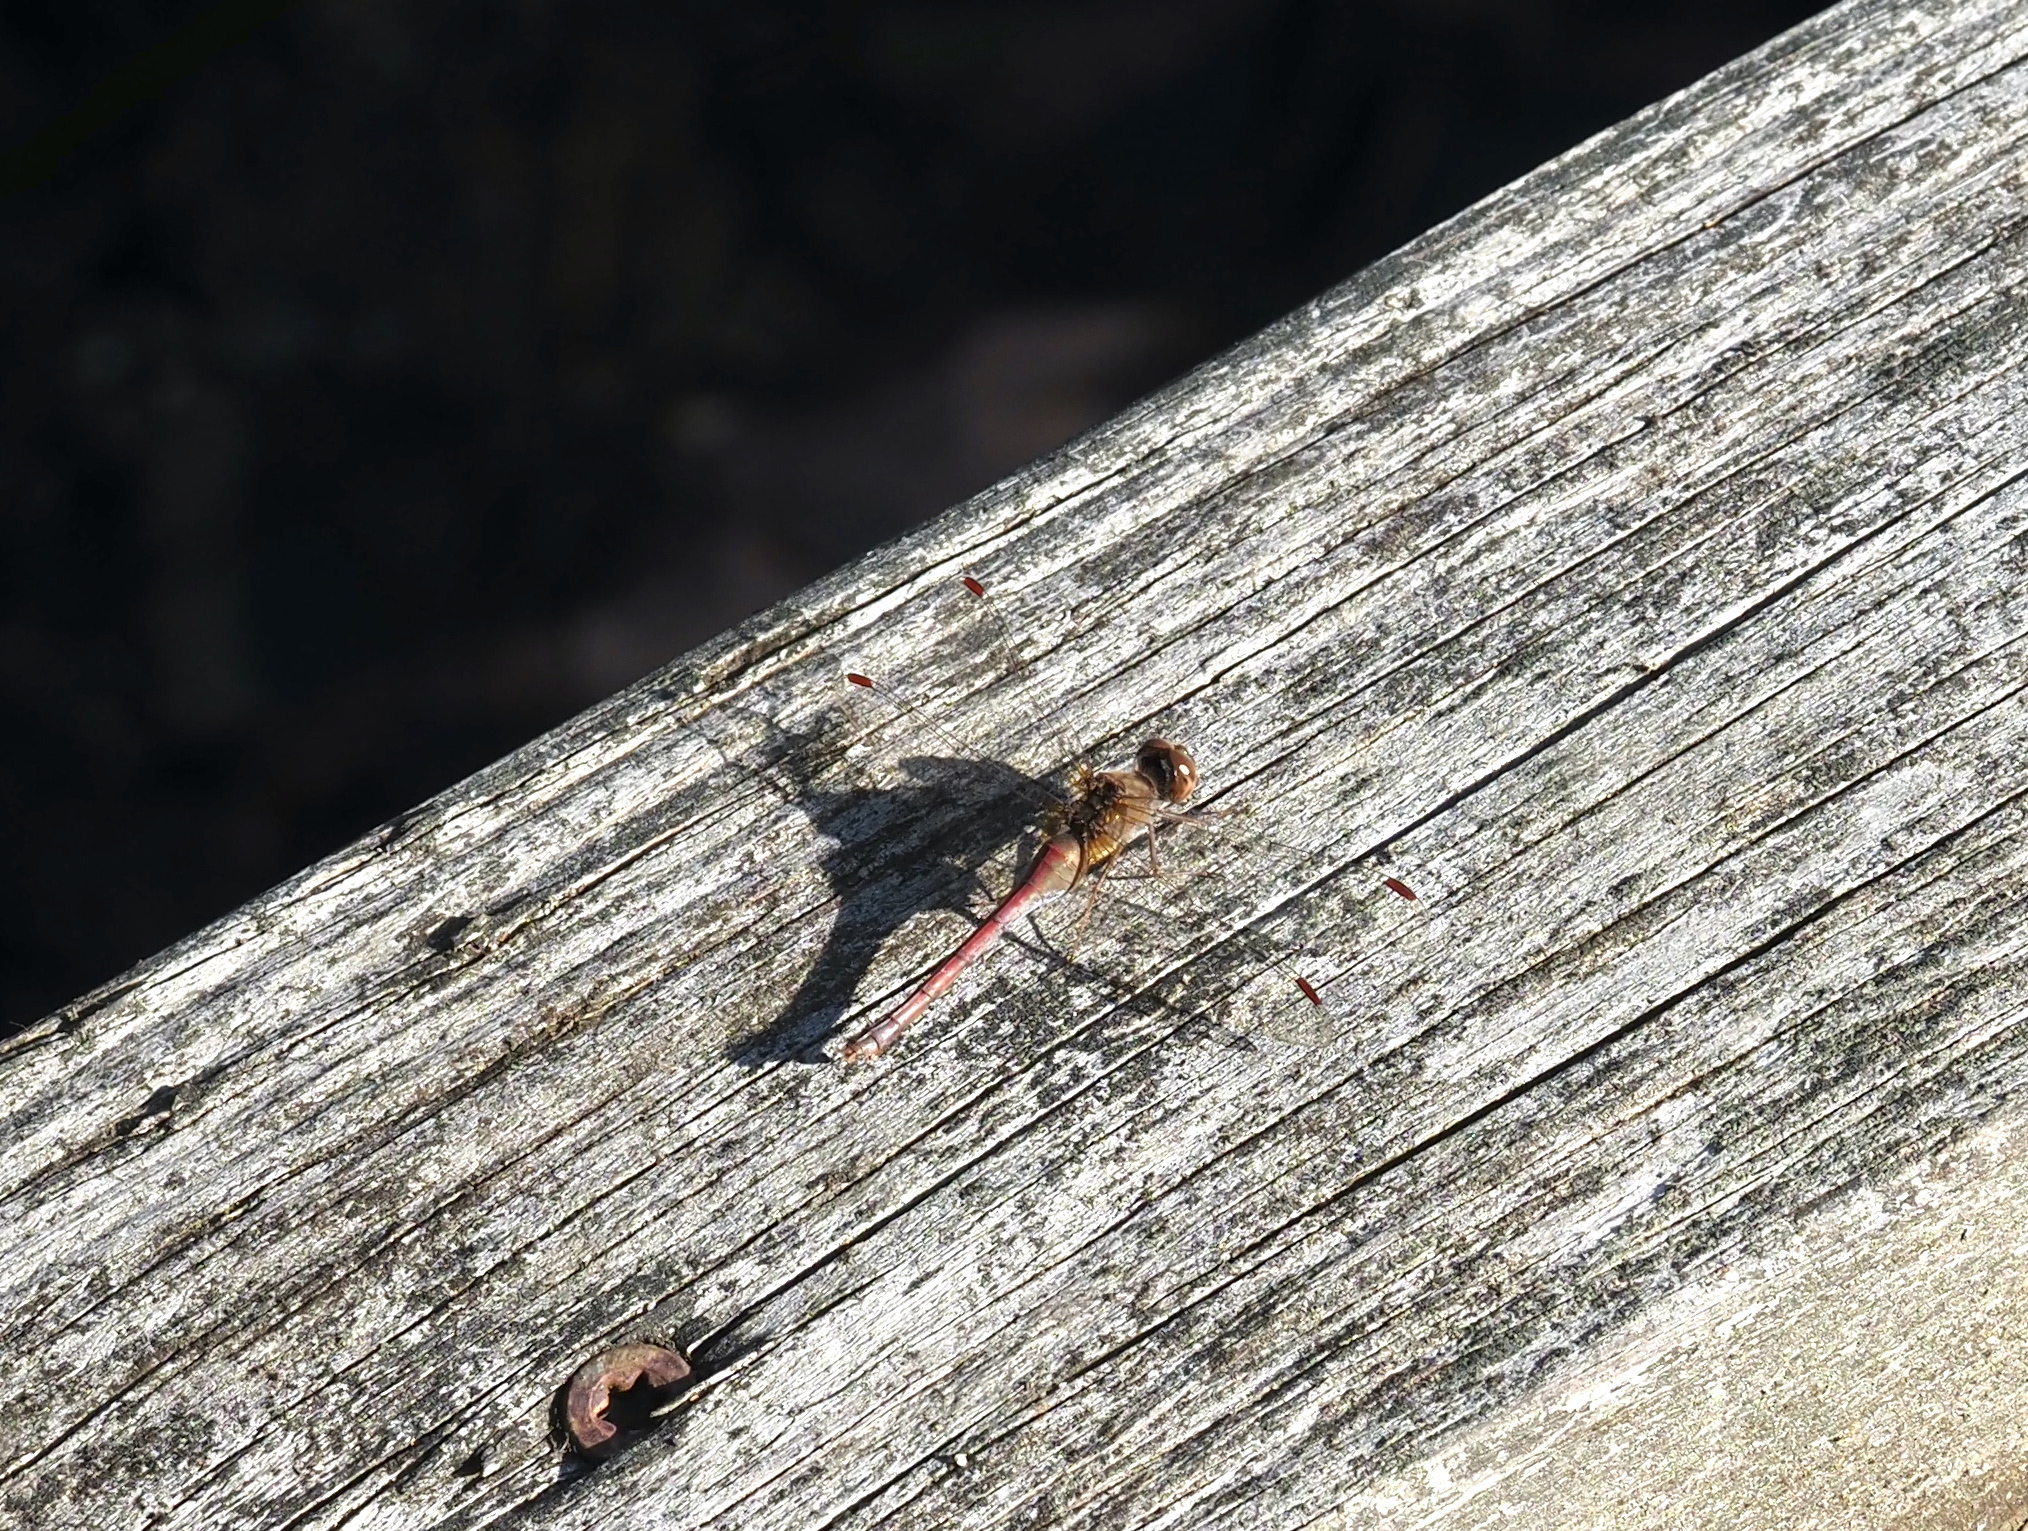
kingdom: Animalia
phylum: Arthropoda
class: Insecta
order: Odonata
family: Libellulidae
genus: Sympetrum
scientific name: Sympetrum vicinum
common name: Autumn meadowhawk
